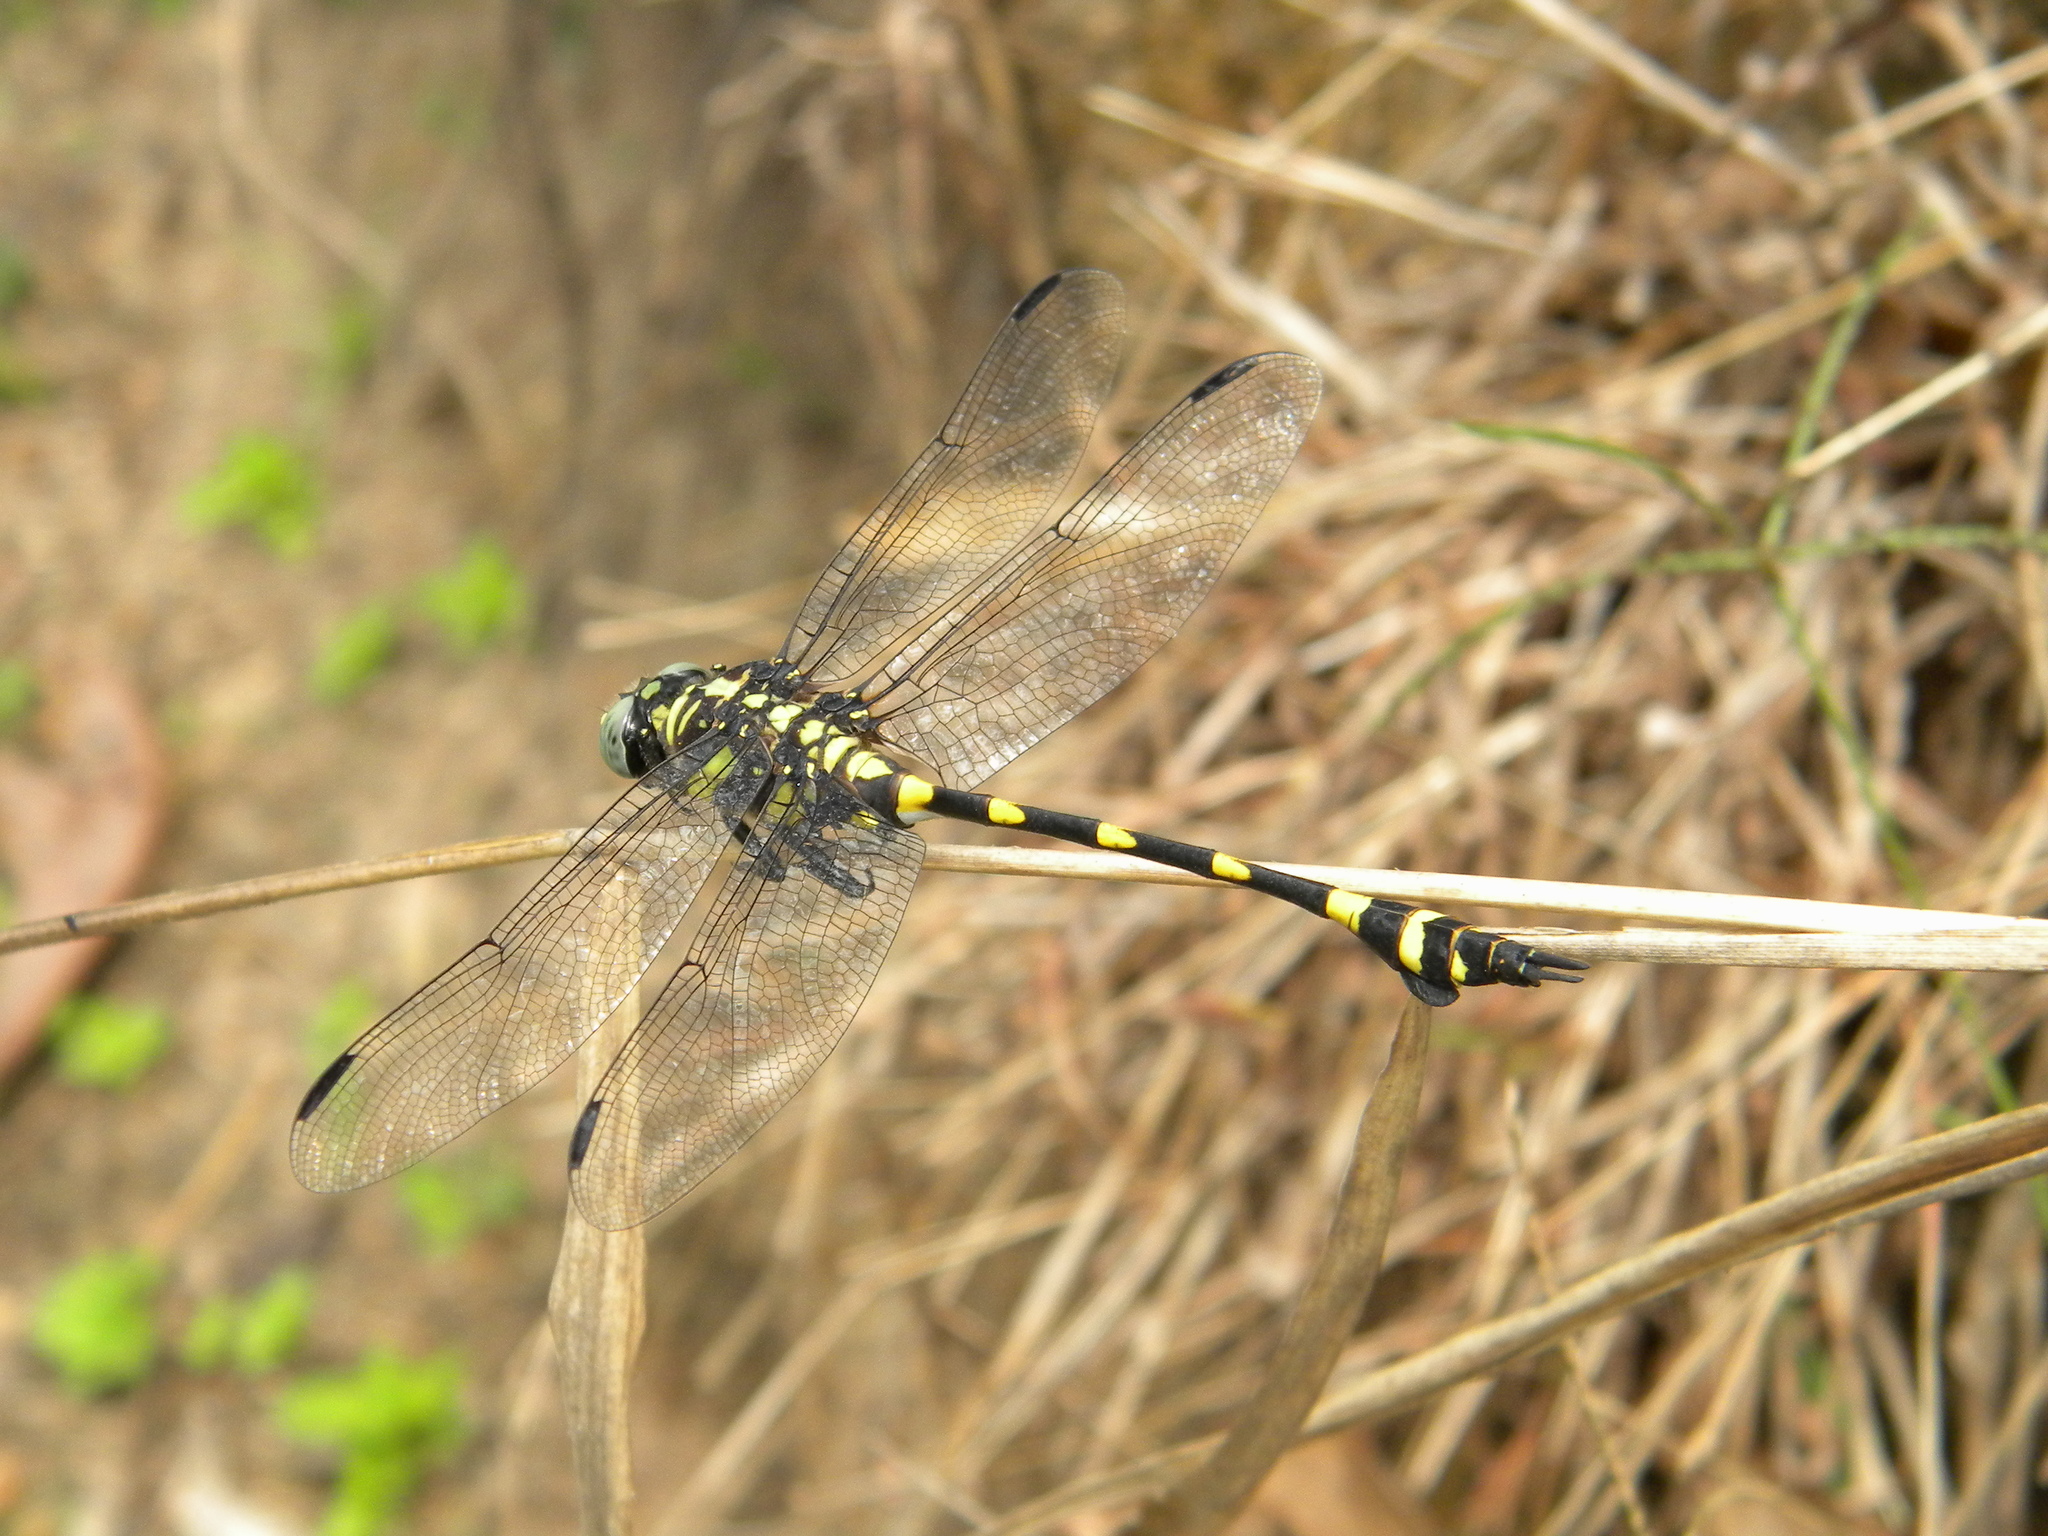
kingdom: Animalia
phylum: Arthropoda
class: Insecta
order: Odonata
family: Gomphidae
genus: Ictinogomphus
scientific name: Ictinogomphus rapax
